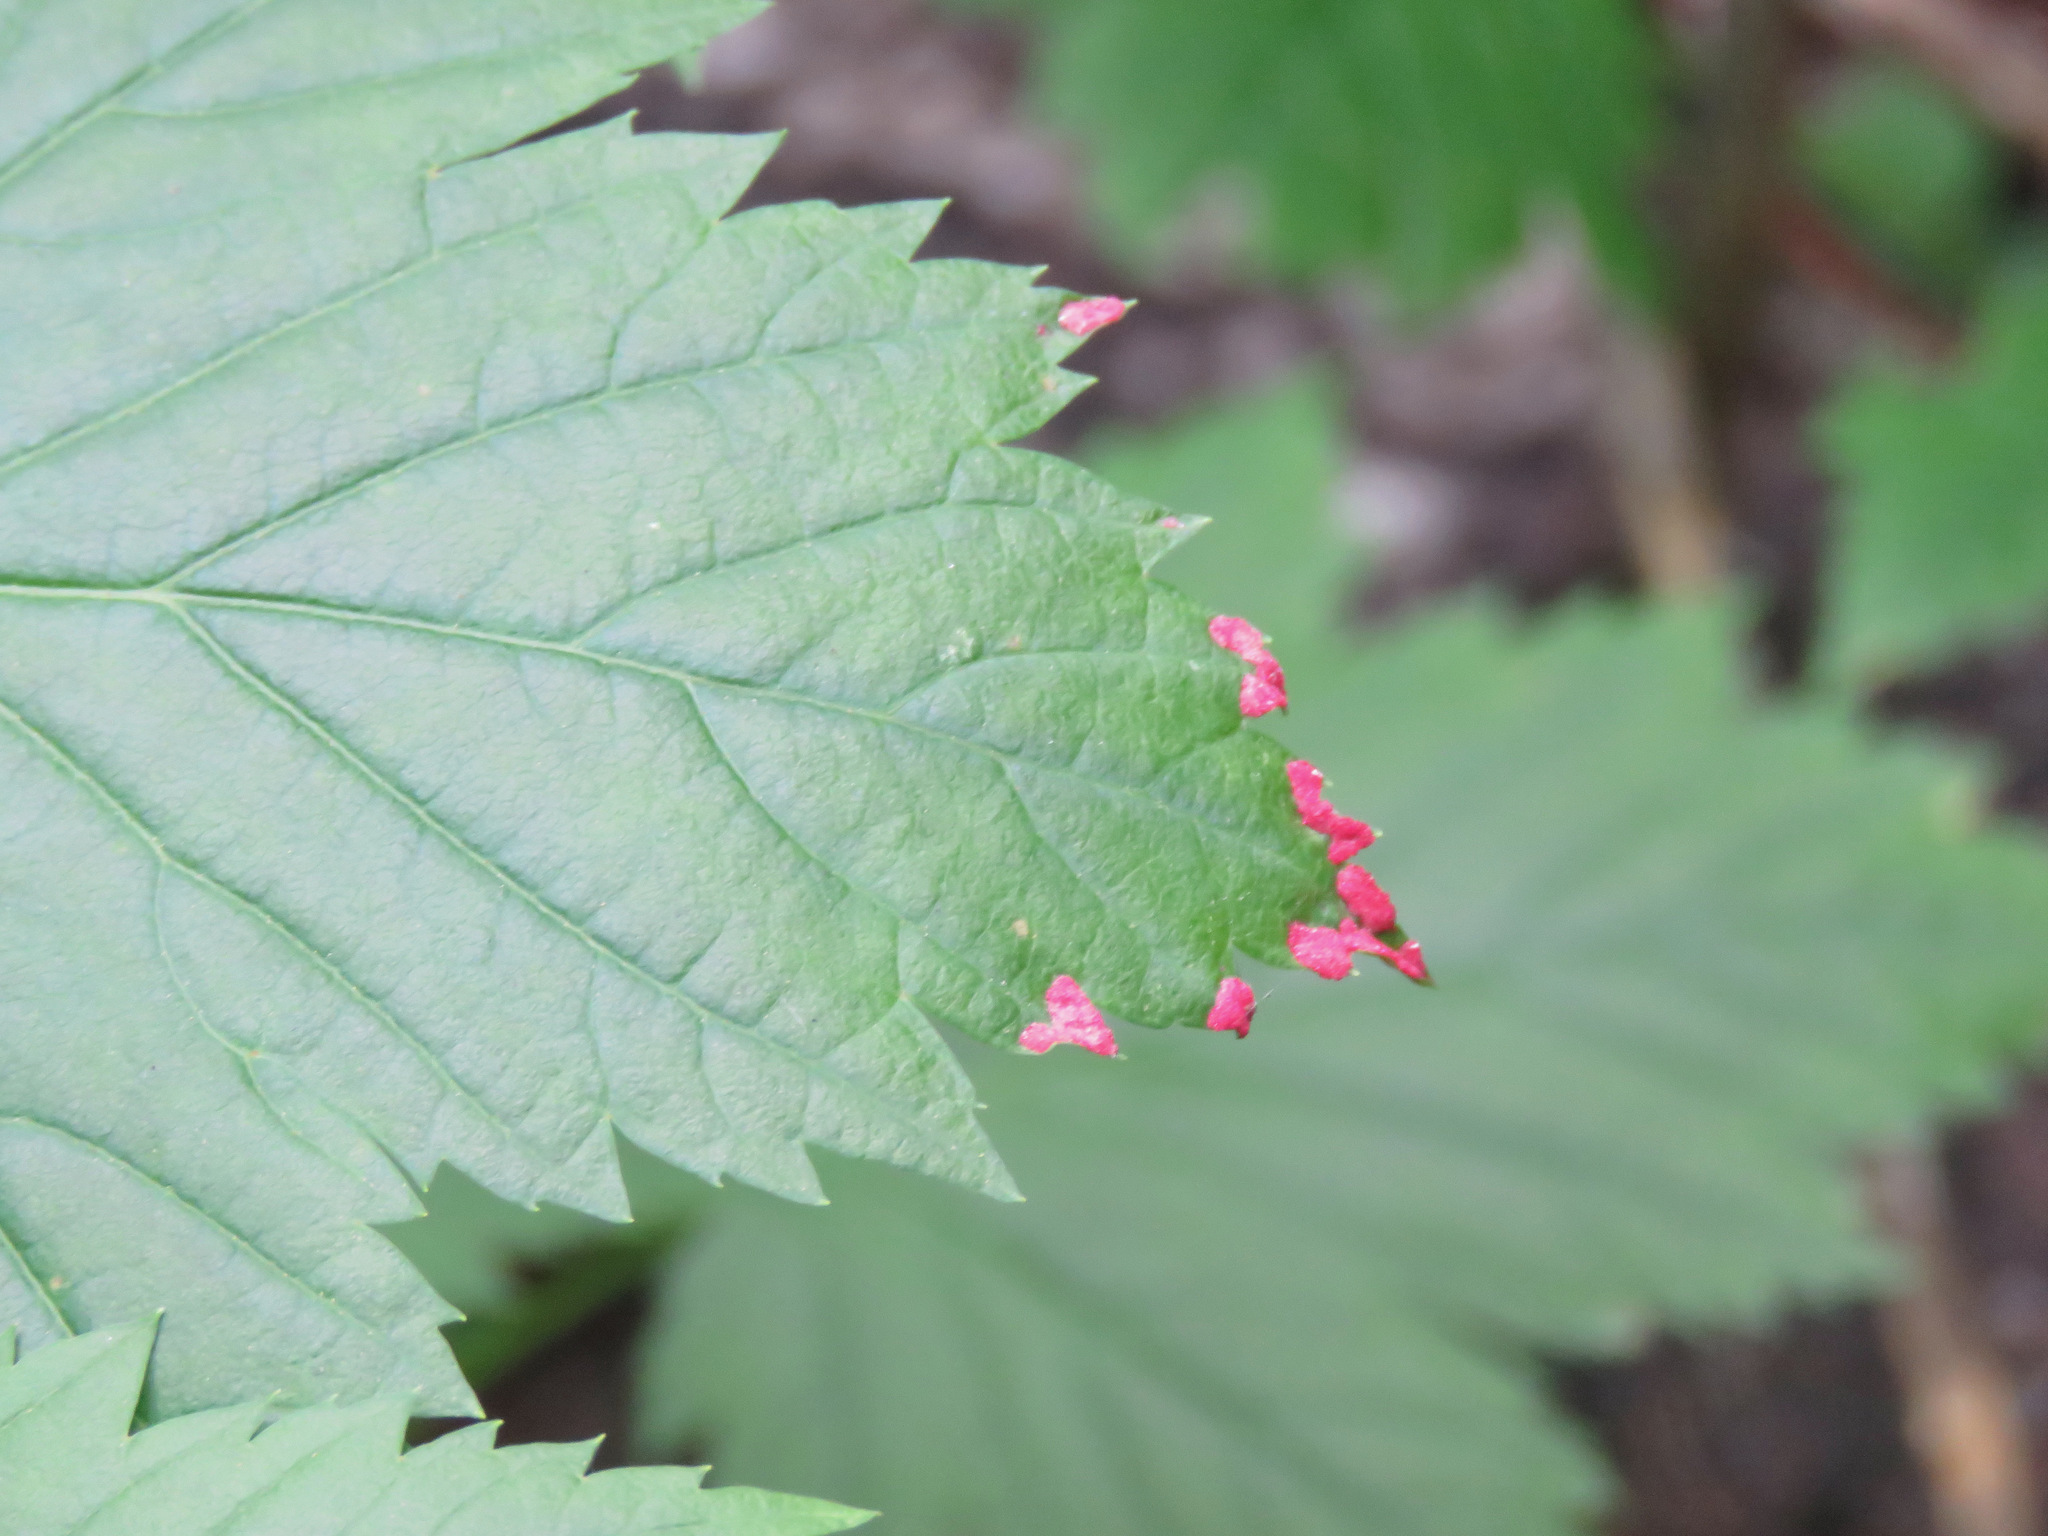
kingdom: Animalia
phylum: Arthropoda
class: Arachnida
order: Trombidiformes
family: Eriophyidae
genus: Aceria
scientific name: Aceria
